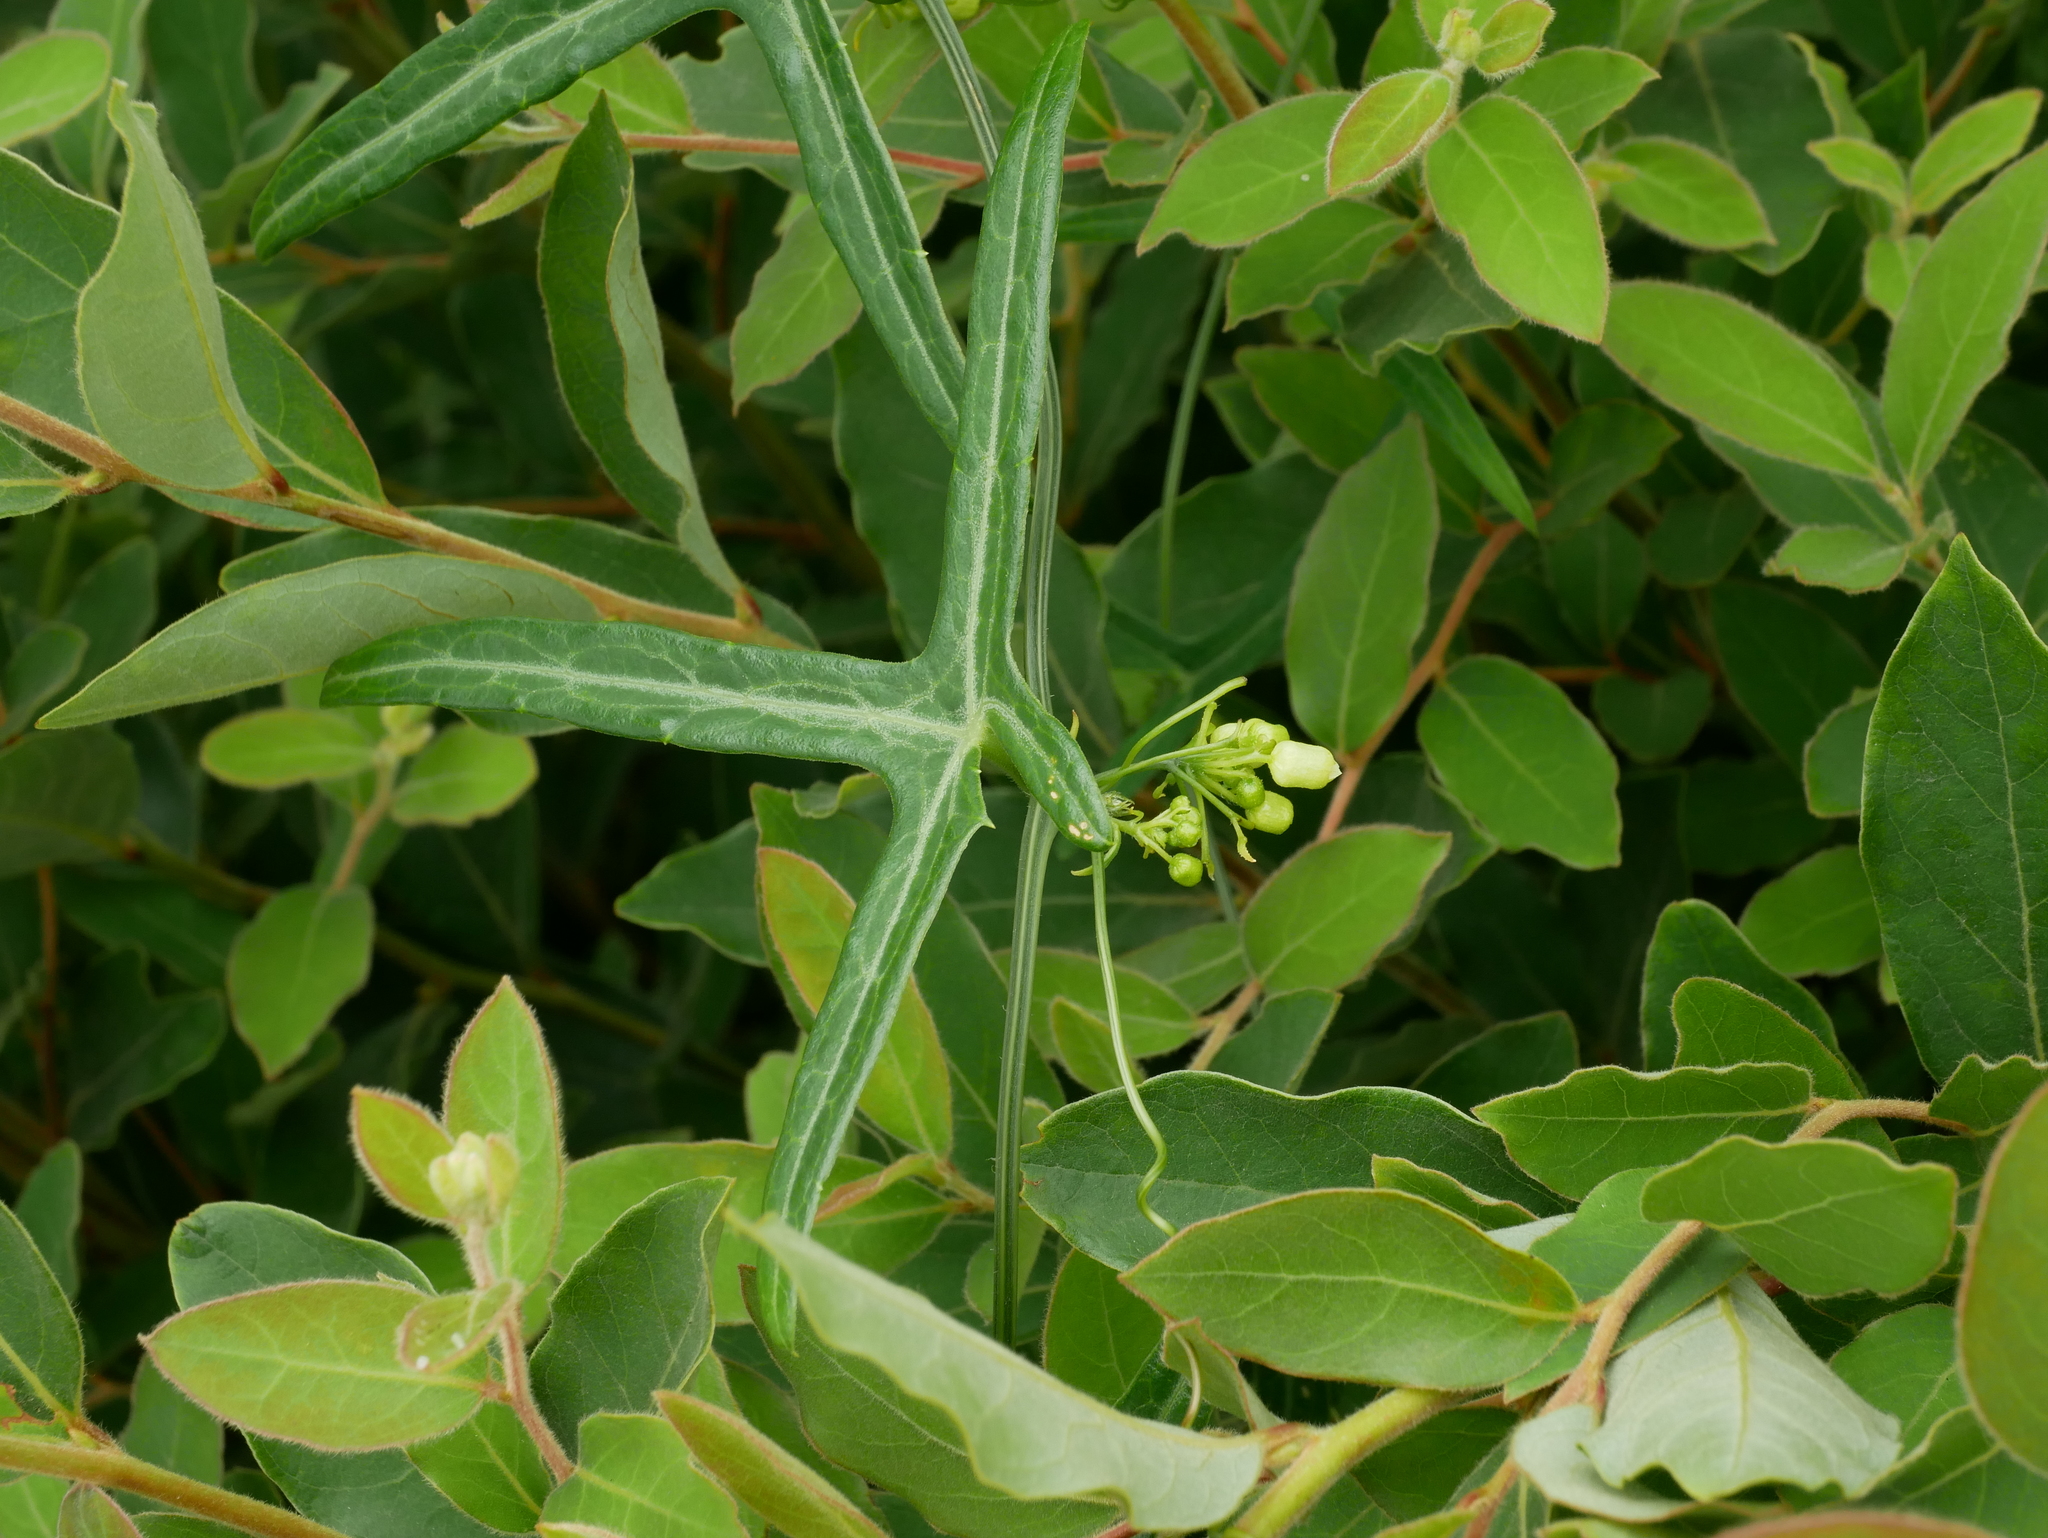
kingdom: Plantae
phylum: Tracheophyta
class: Magnoliopsida
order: Cucurbitales
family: Cucurbitaceae
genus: Solena
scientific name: Solena amplexicaulis
